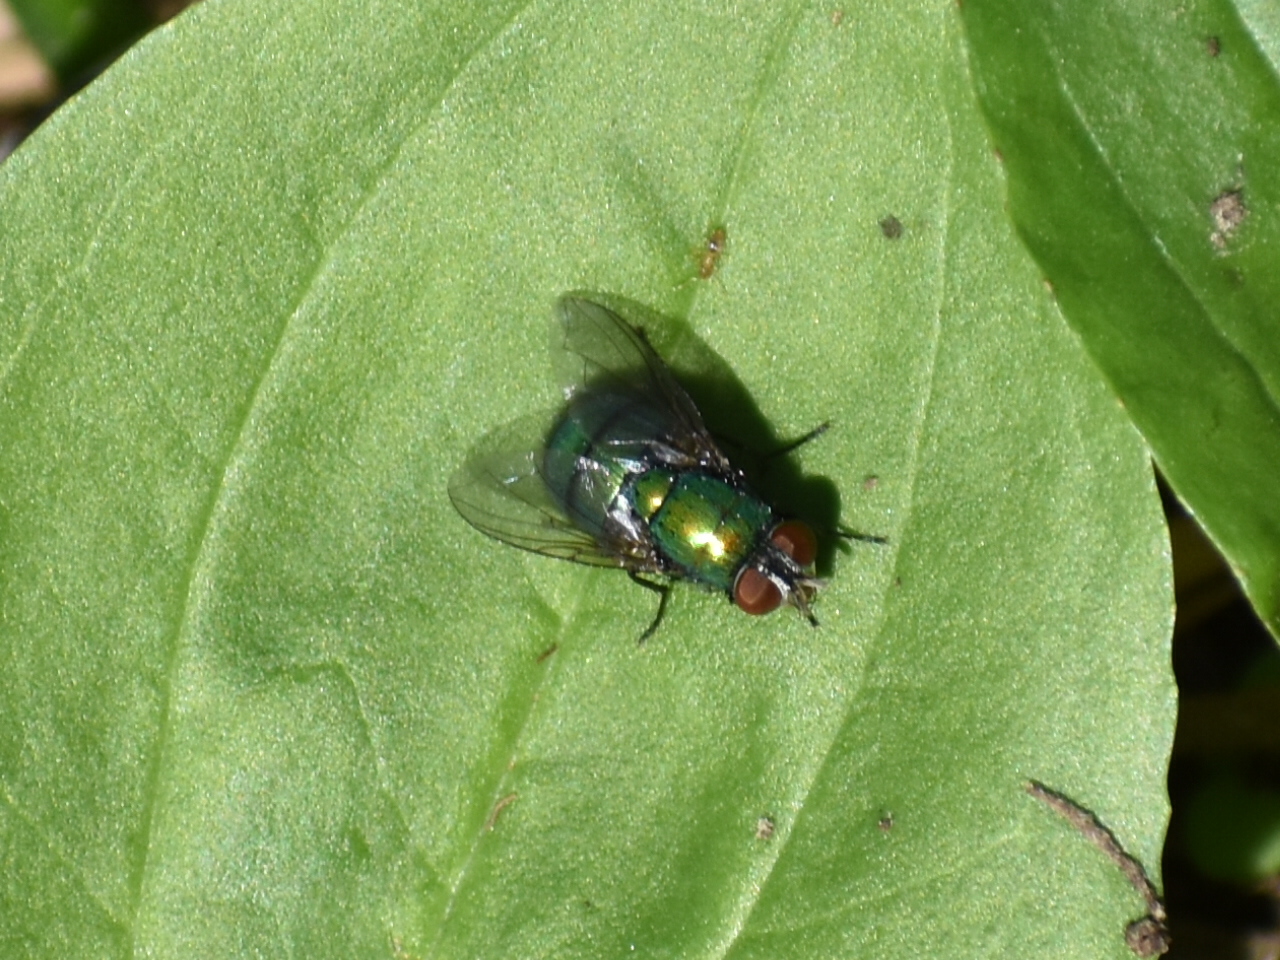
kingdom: Animalia
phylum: Arthropoda
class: Insecta
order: Diptera
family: Calliphoridae
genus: Lucilia
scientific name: Lucilia
